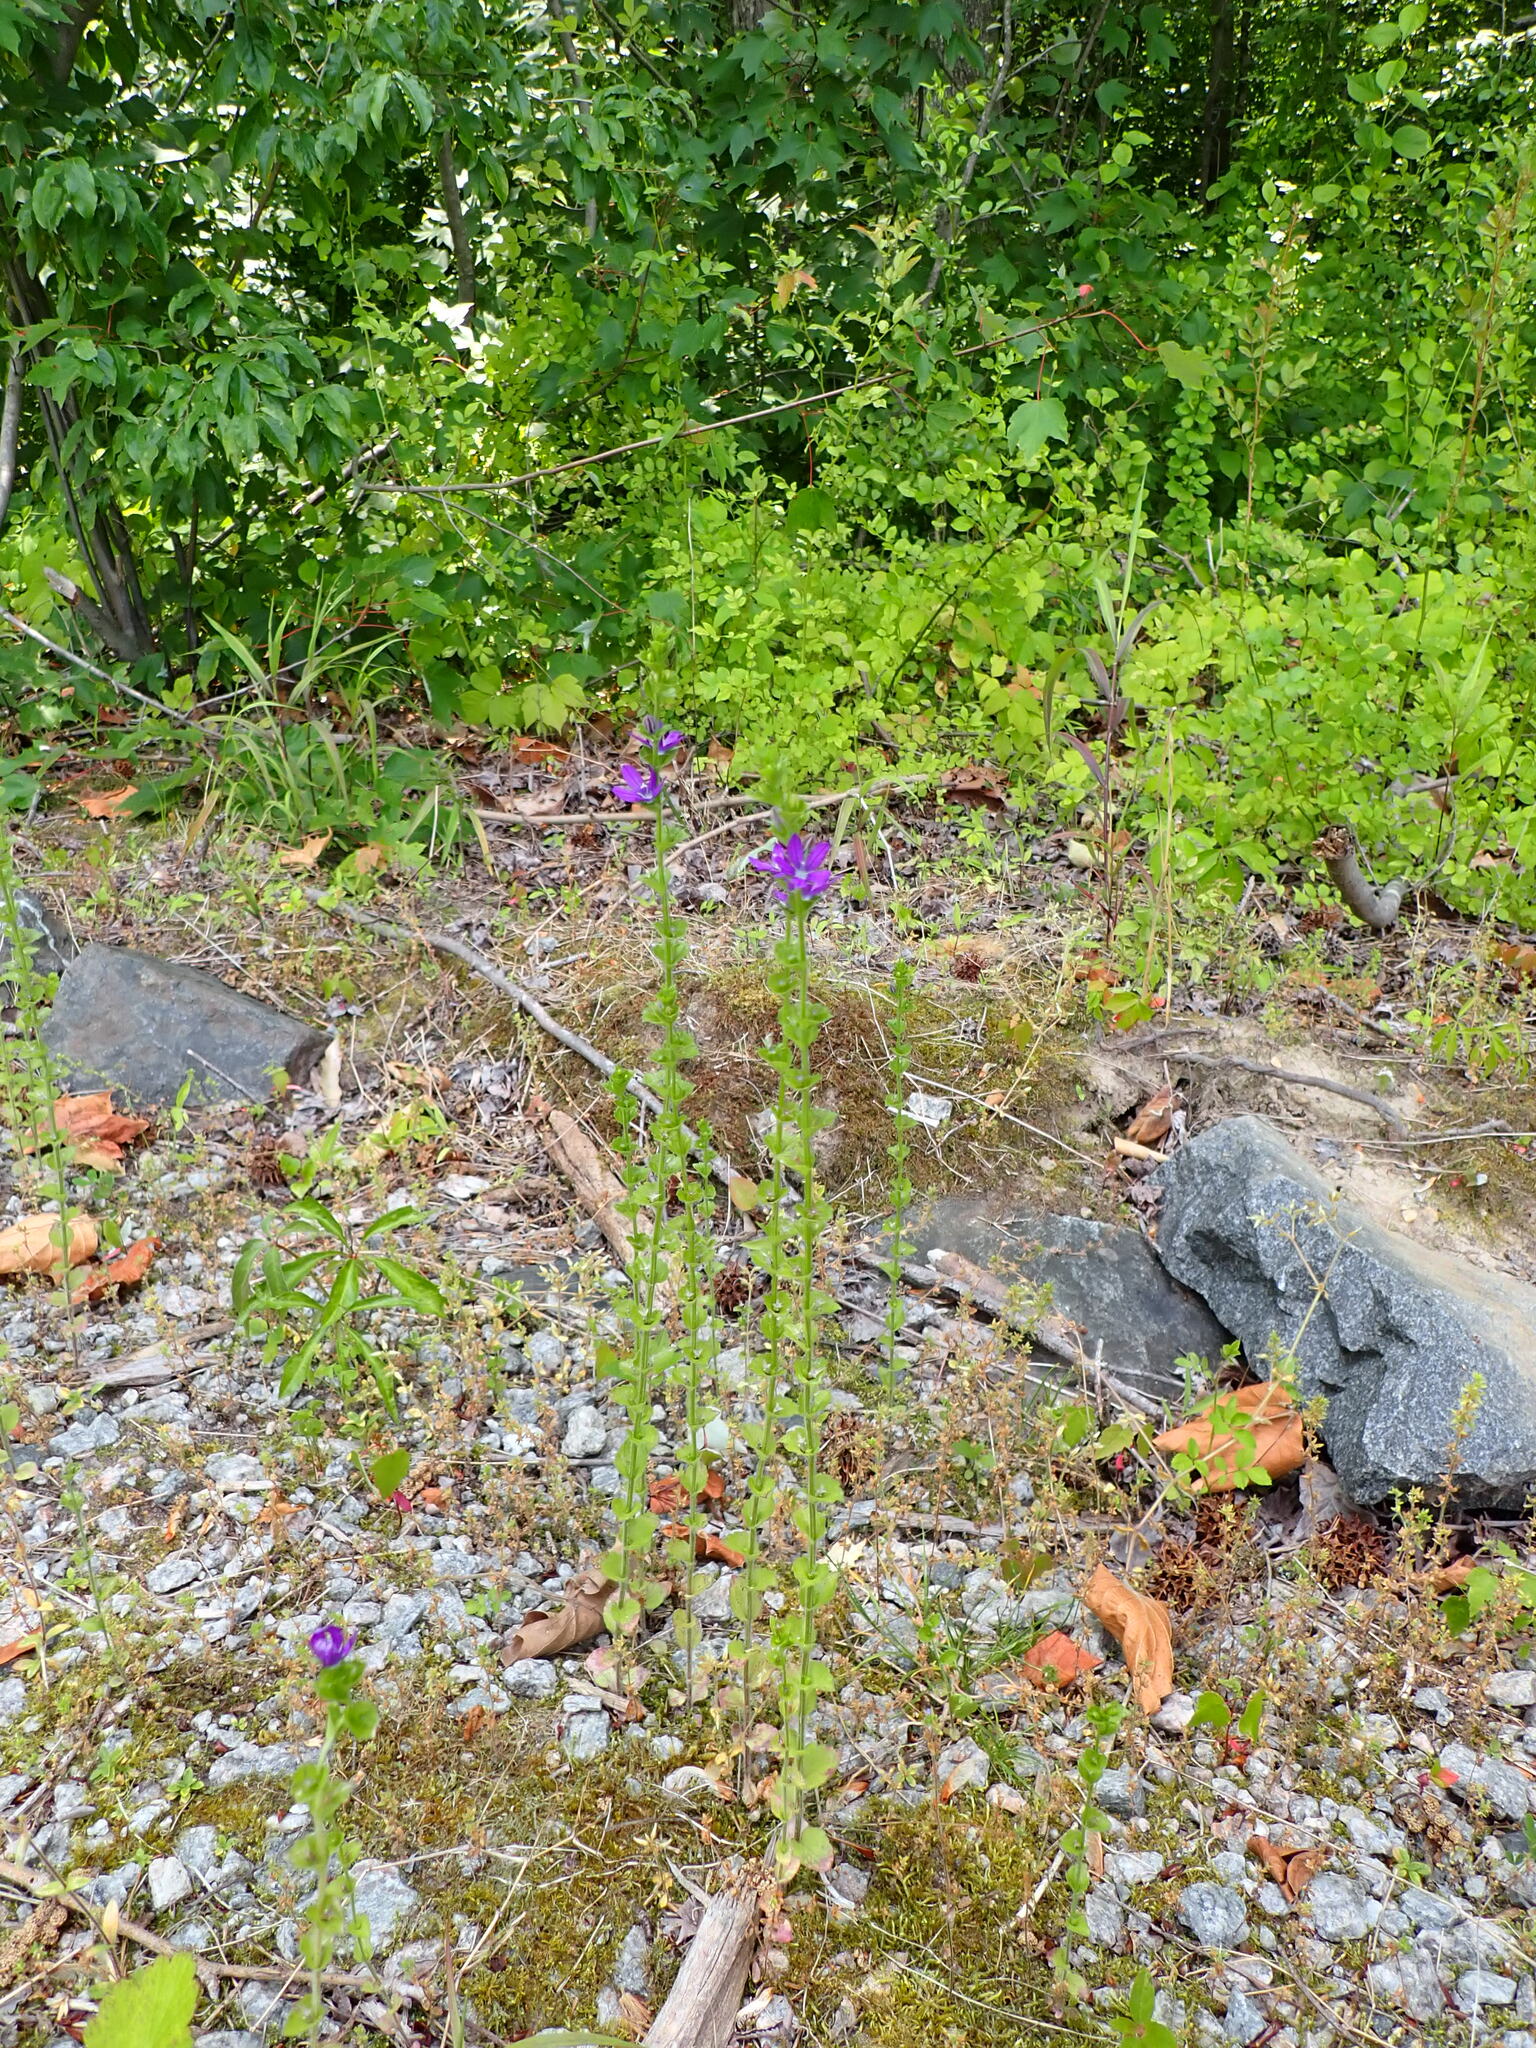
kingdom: Plantae
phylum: Tracheophyta
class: Magnoliopsida
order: Asterales
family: Campanulaceae
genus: Triodanis
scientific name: Triodanis perfoliata
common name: Clasping venus' looking-glass
